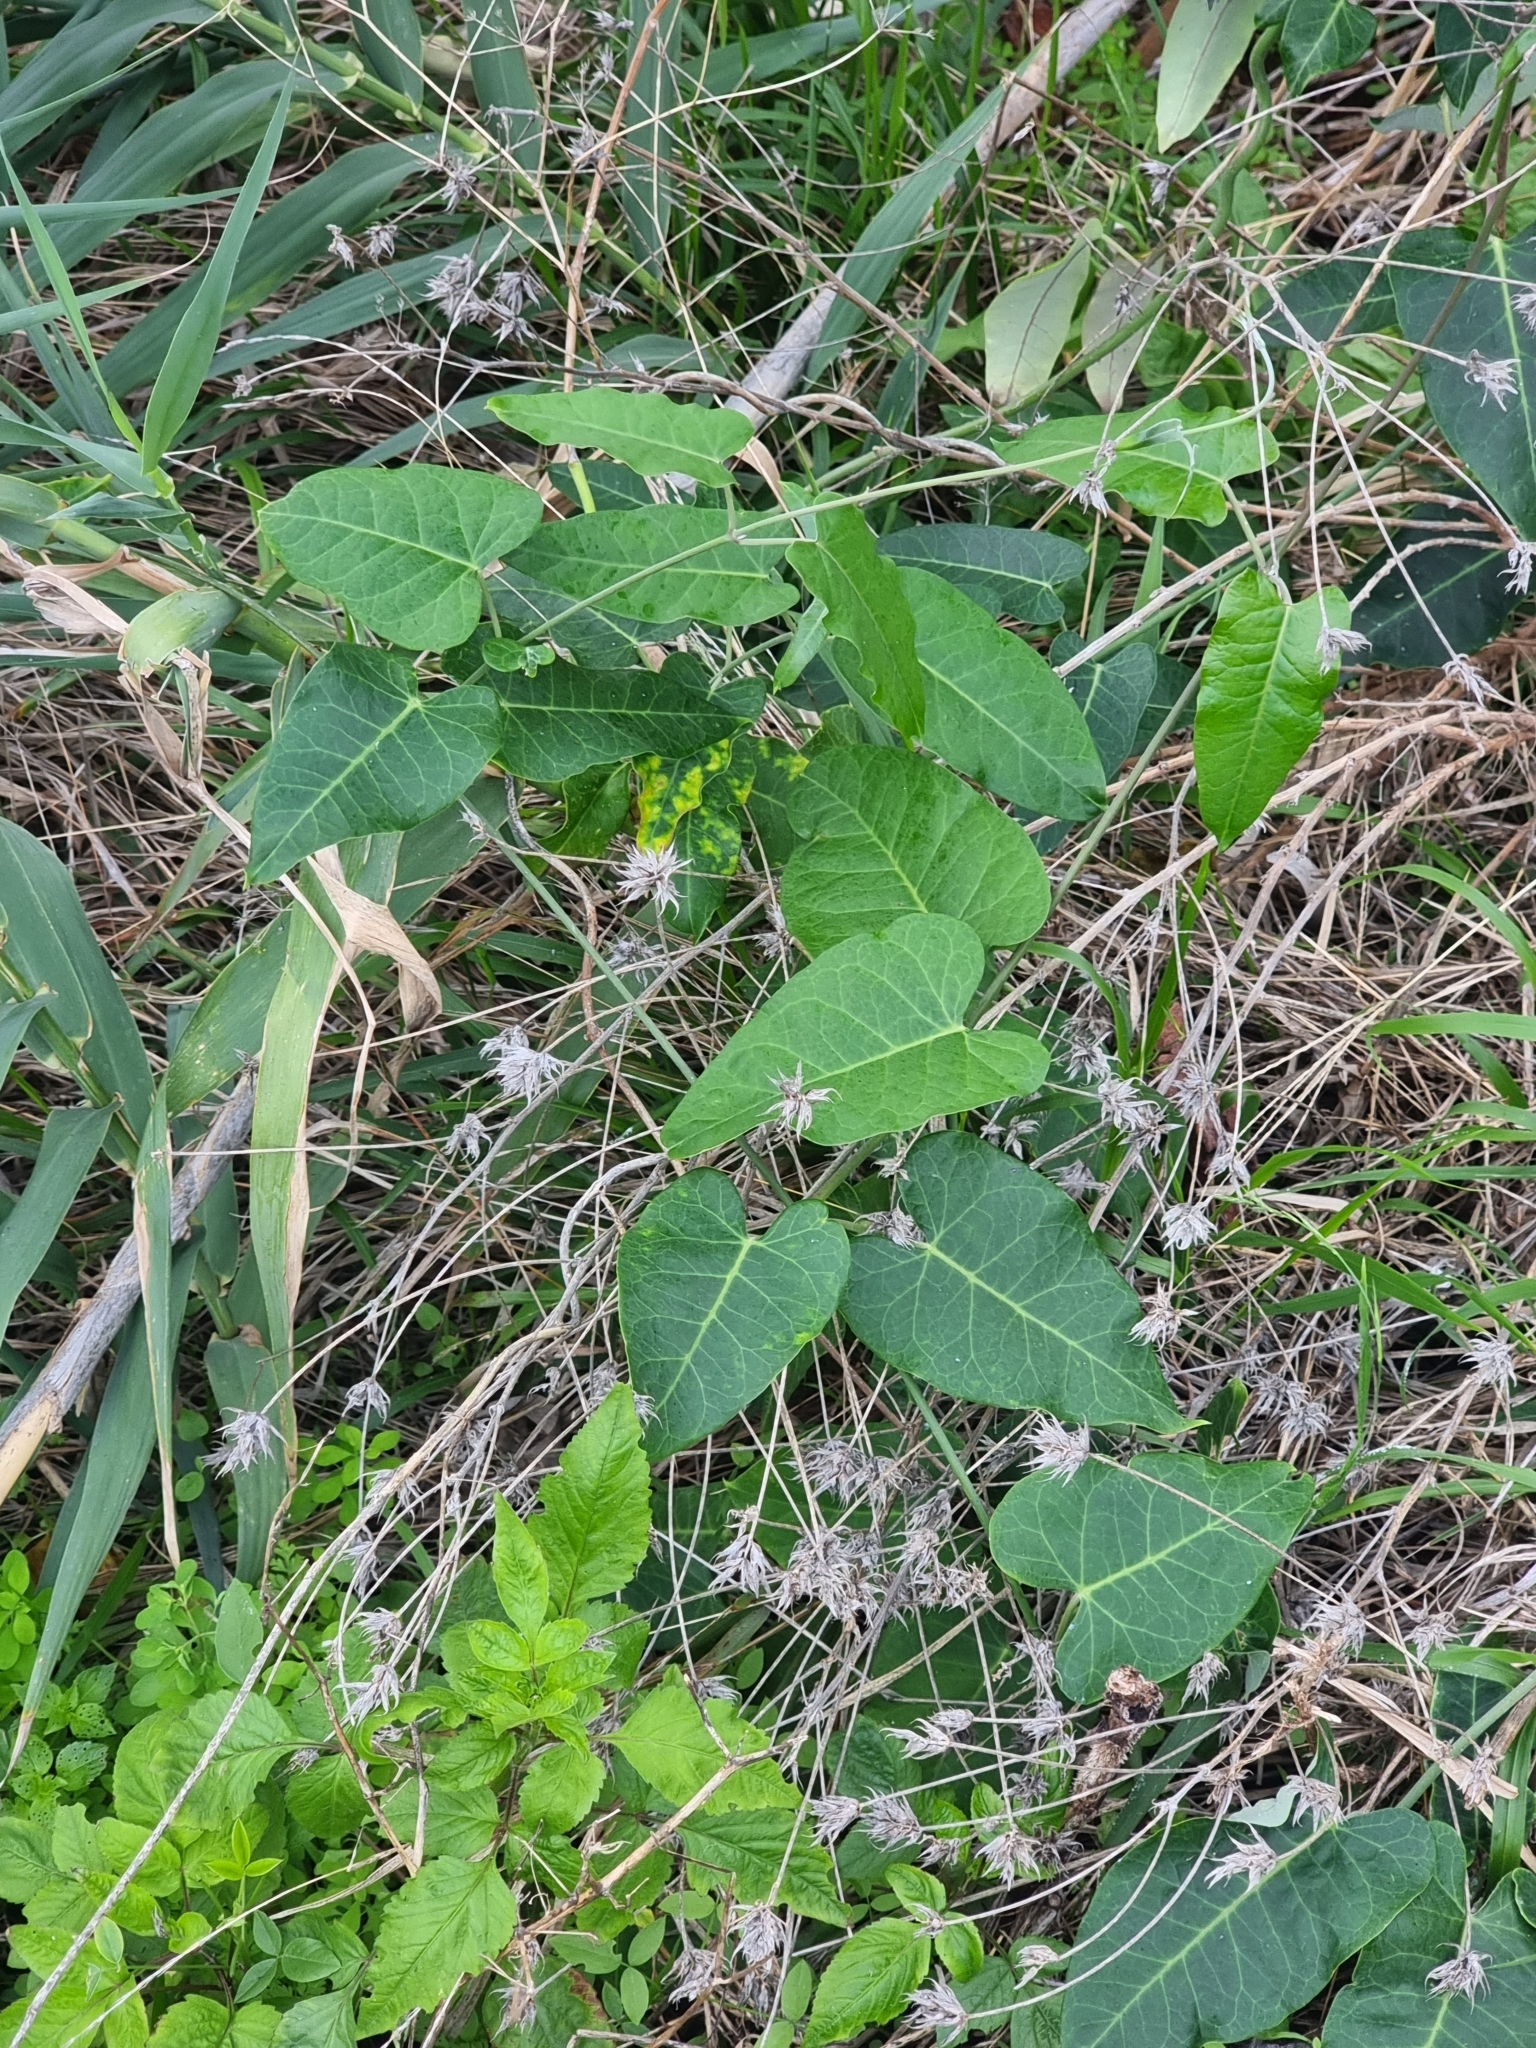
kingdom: Plantae
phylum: Tracheophyta
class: Magnoliopsida
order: Gentianales
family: Apocynaceae
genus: Araujia
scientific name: Araujia sericifera
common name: White bladderflower
